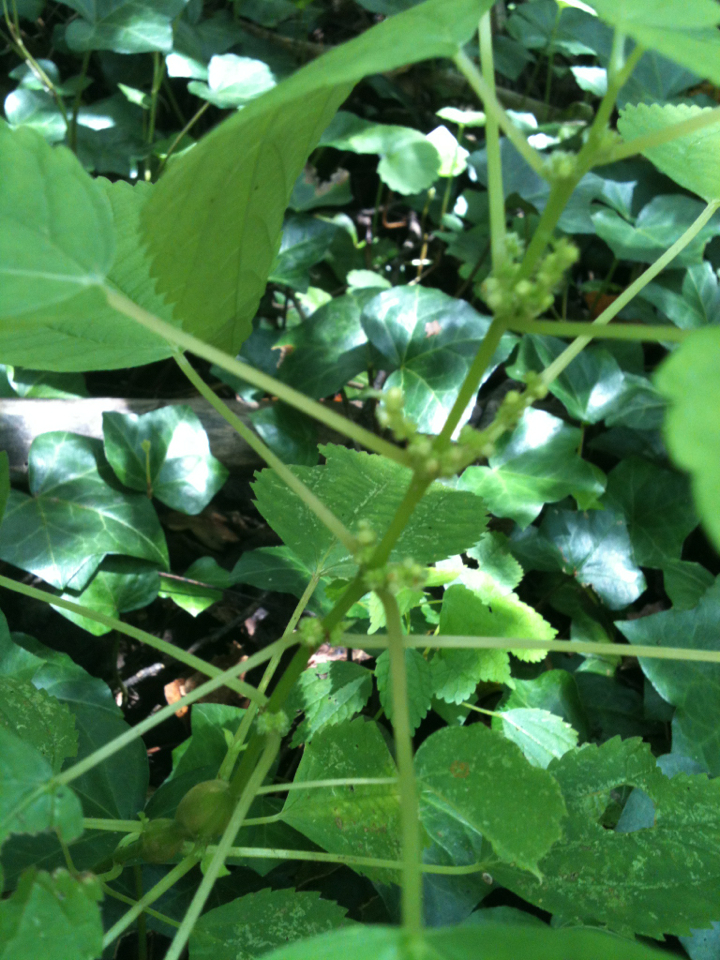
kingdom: Plantae
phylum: Tracheophyta
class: Magnoliopsida
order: Rosales
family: Urticaceae
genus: Boehmeria
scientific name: Boehmeria cylindrica
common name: Bog-hemp
